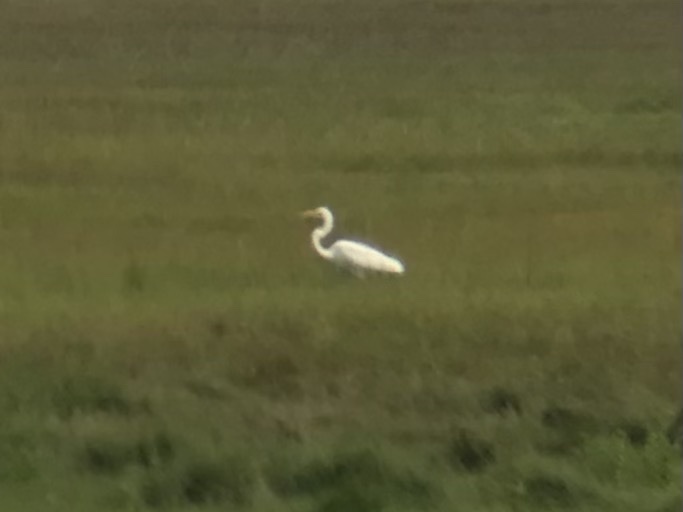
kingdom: Animalia
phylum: Chordata
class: Aves
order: Pelecaniformes
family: Ardeidae
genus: Ardea
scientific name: Ardea alba
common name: Great egret
